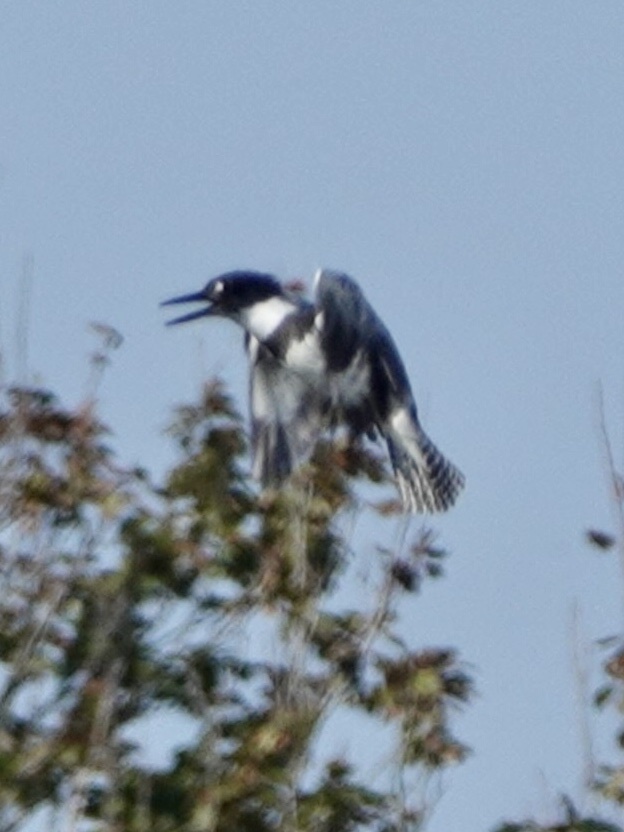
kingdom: Animalia
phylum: Chordata
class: Aves
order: Coraciiformes
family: Alcedinidae
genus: Megaceryle
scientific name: Megaceryle alcyon
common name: Belted kingfisher
